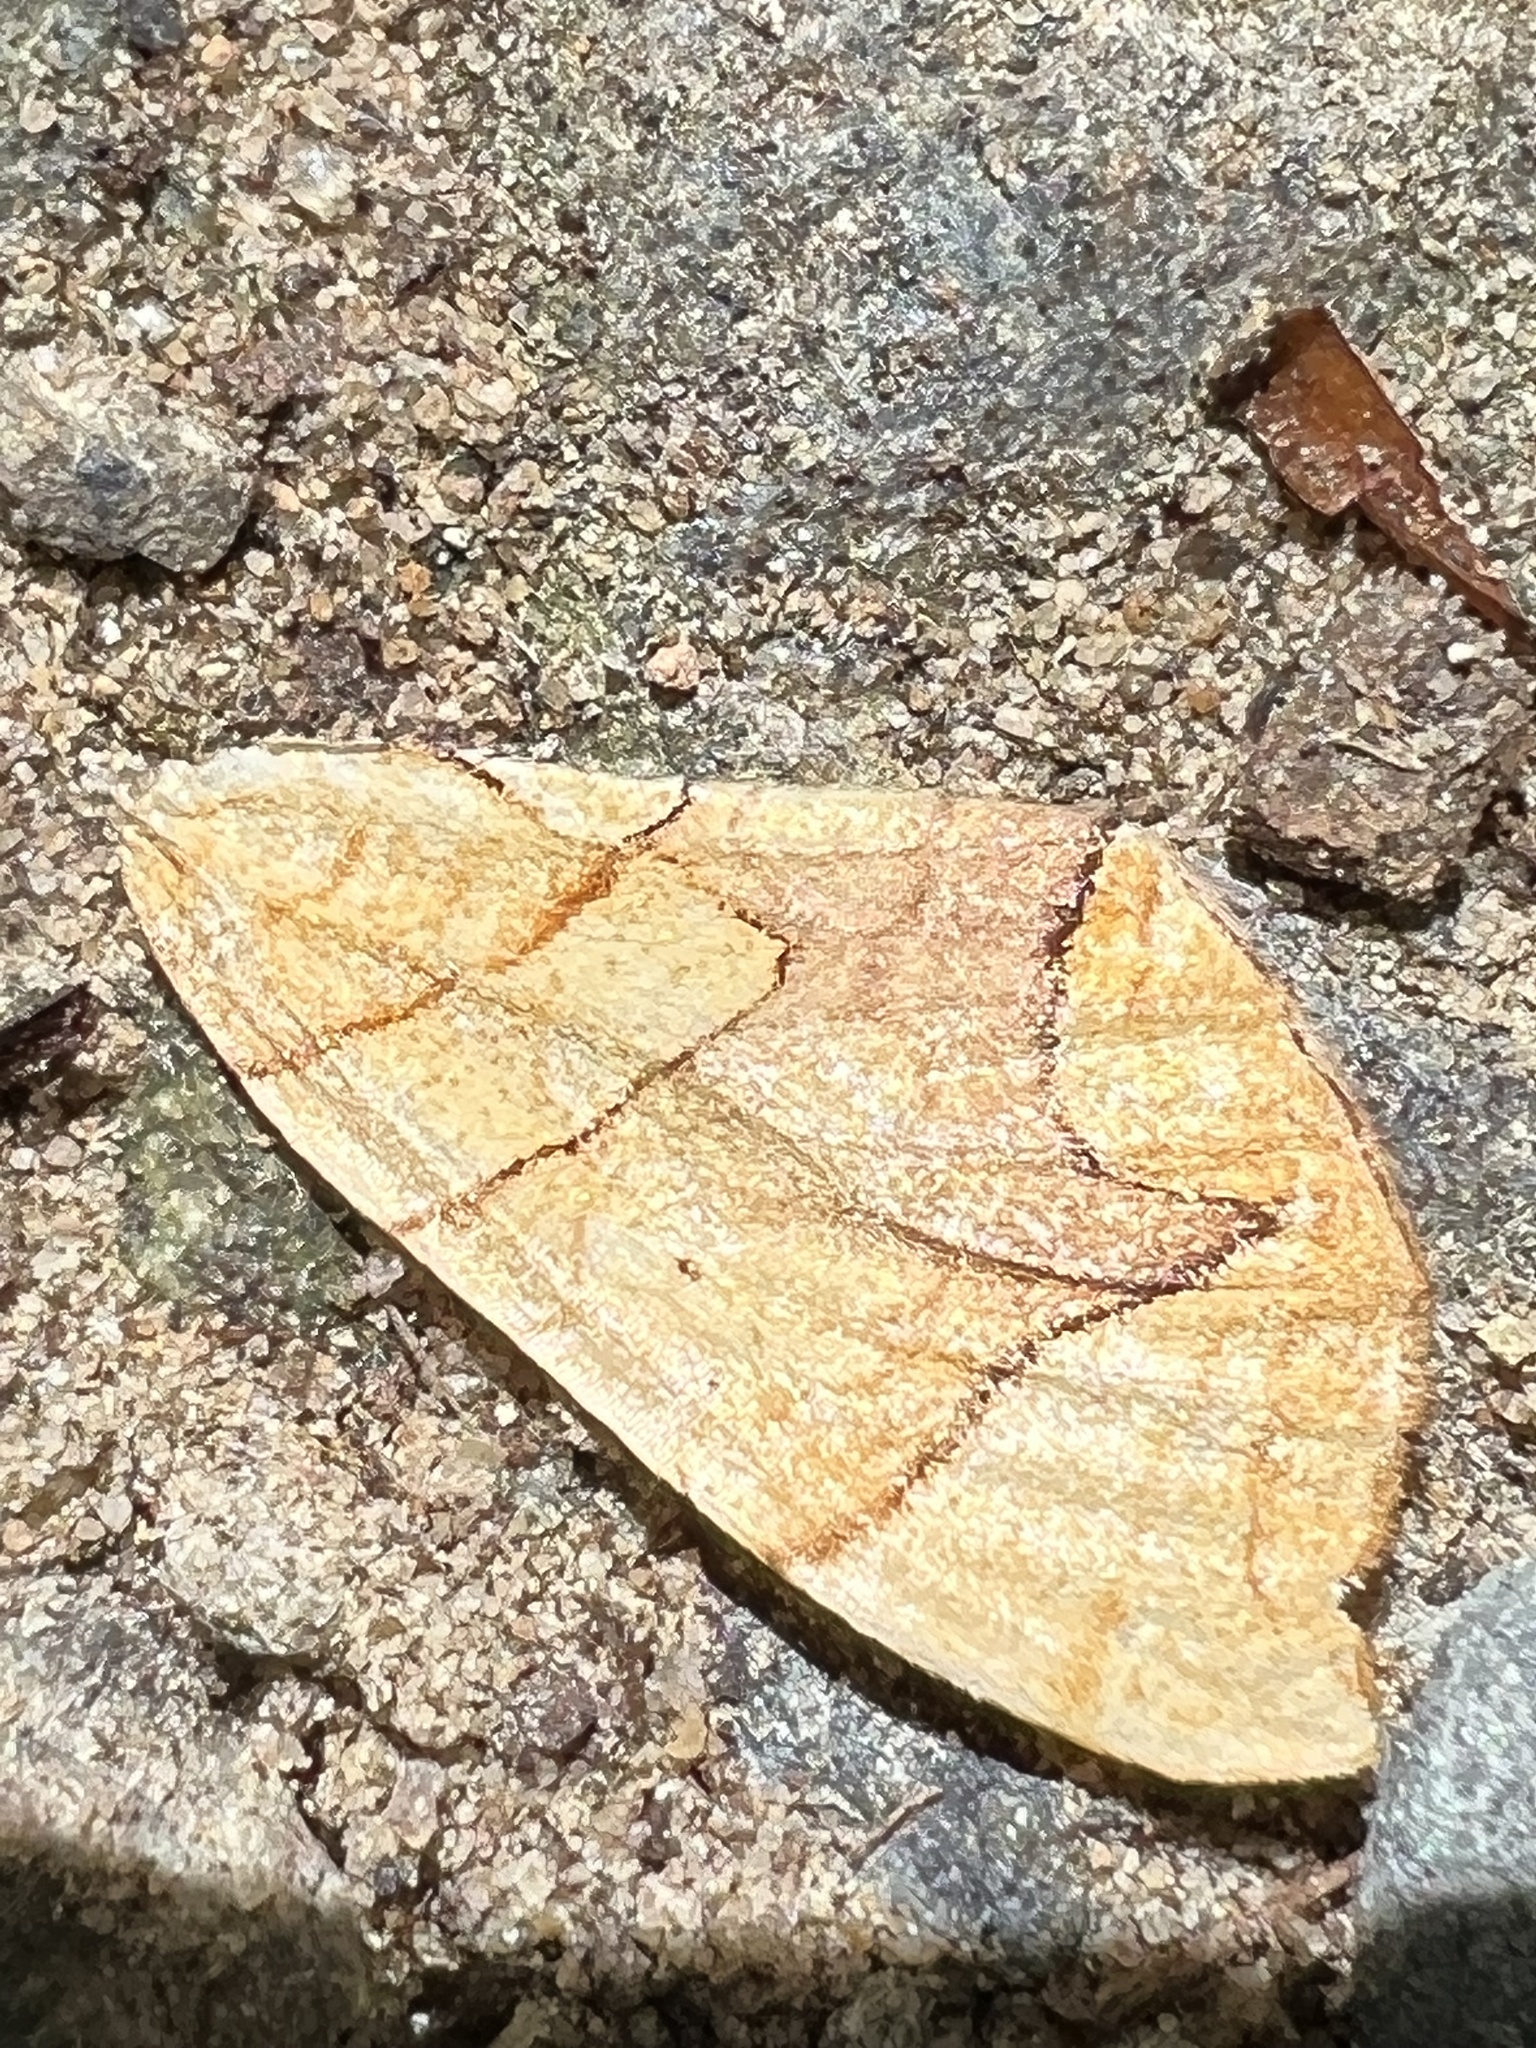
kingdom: Animalia
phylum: Arthropoda
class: Insecta
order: Lepidoptera
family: Geometridae
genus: Eulithis
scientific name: Eulithis
